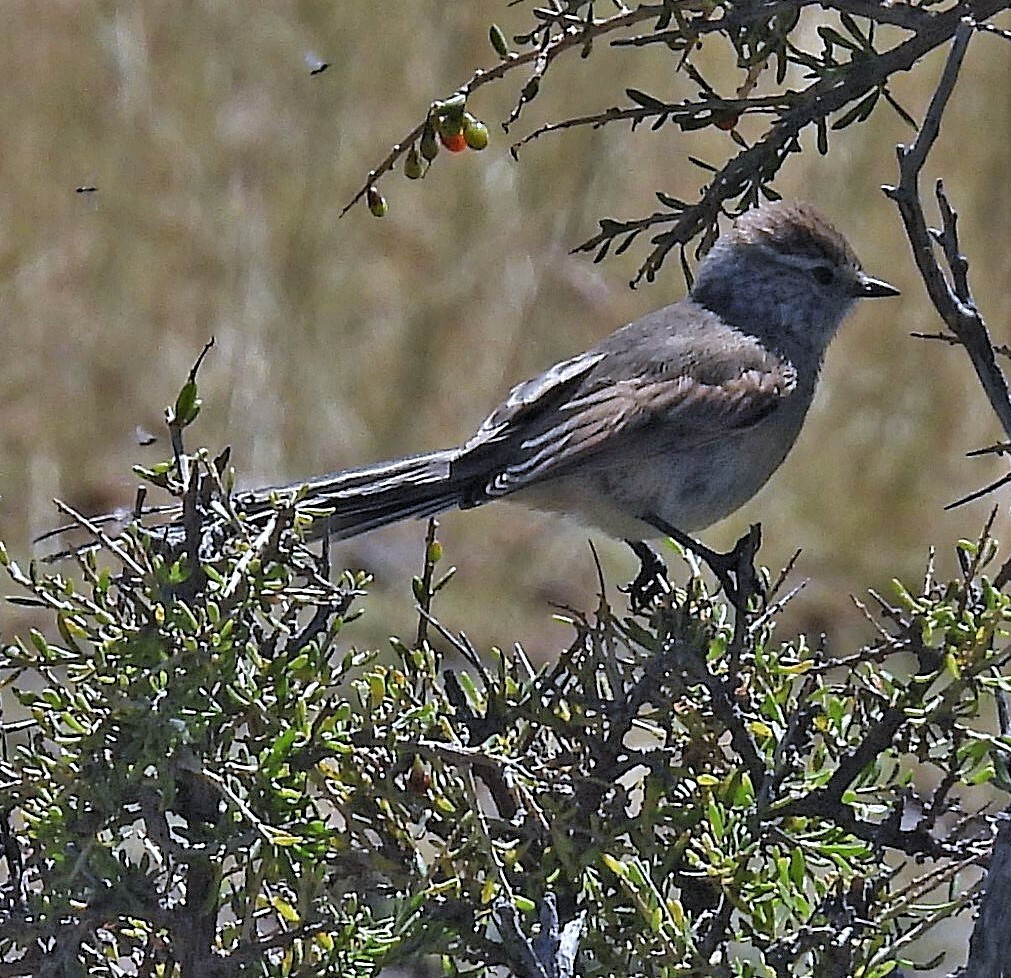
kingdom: Animalia
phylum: Chordata
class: Aves
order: Passeriformes
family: Furnariidae
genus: Leptasthenura
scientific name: Leptasthenura aegithaloides
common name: Plain-mantled tit-spinetail
